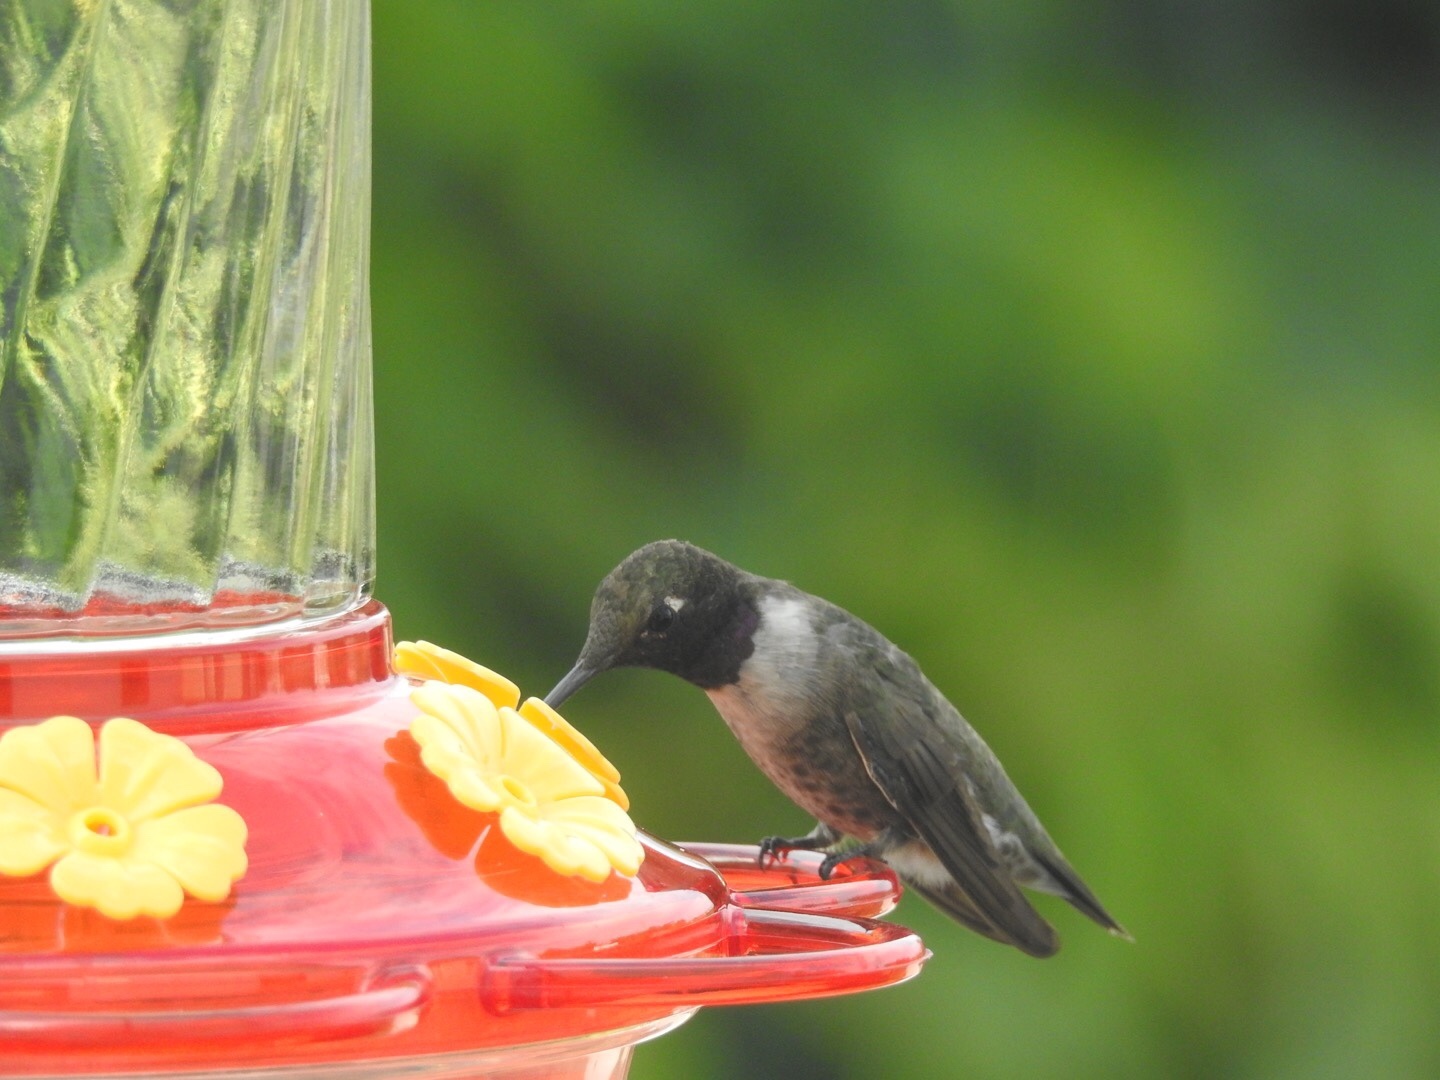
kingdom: Animalia
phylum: Chordata
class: Aves
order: Apodiformes
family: Trochilidae
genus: Archilochus
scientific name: Archilochus alexandri
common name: Black-chinned hummingbird
